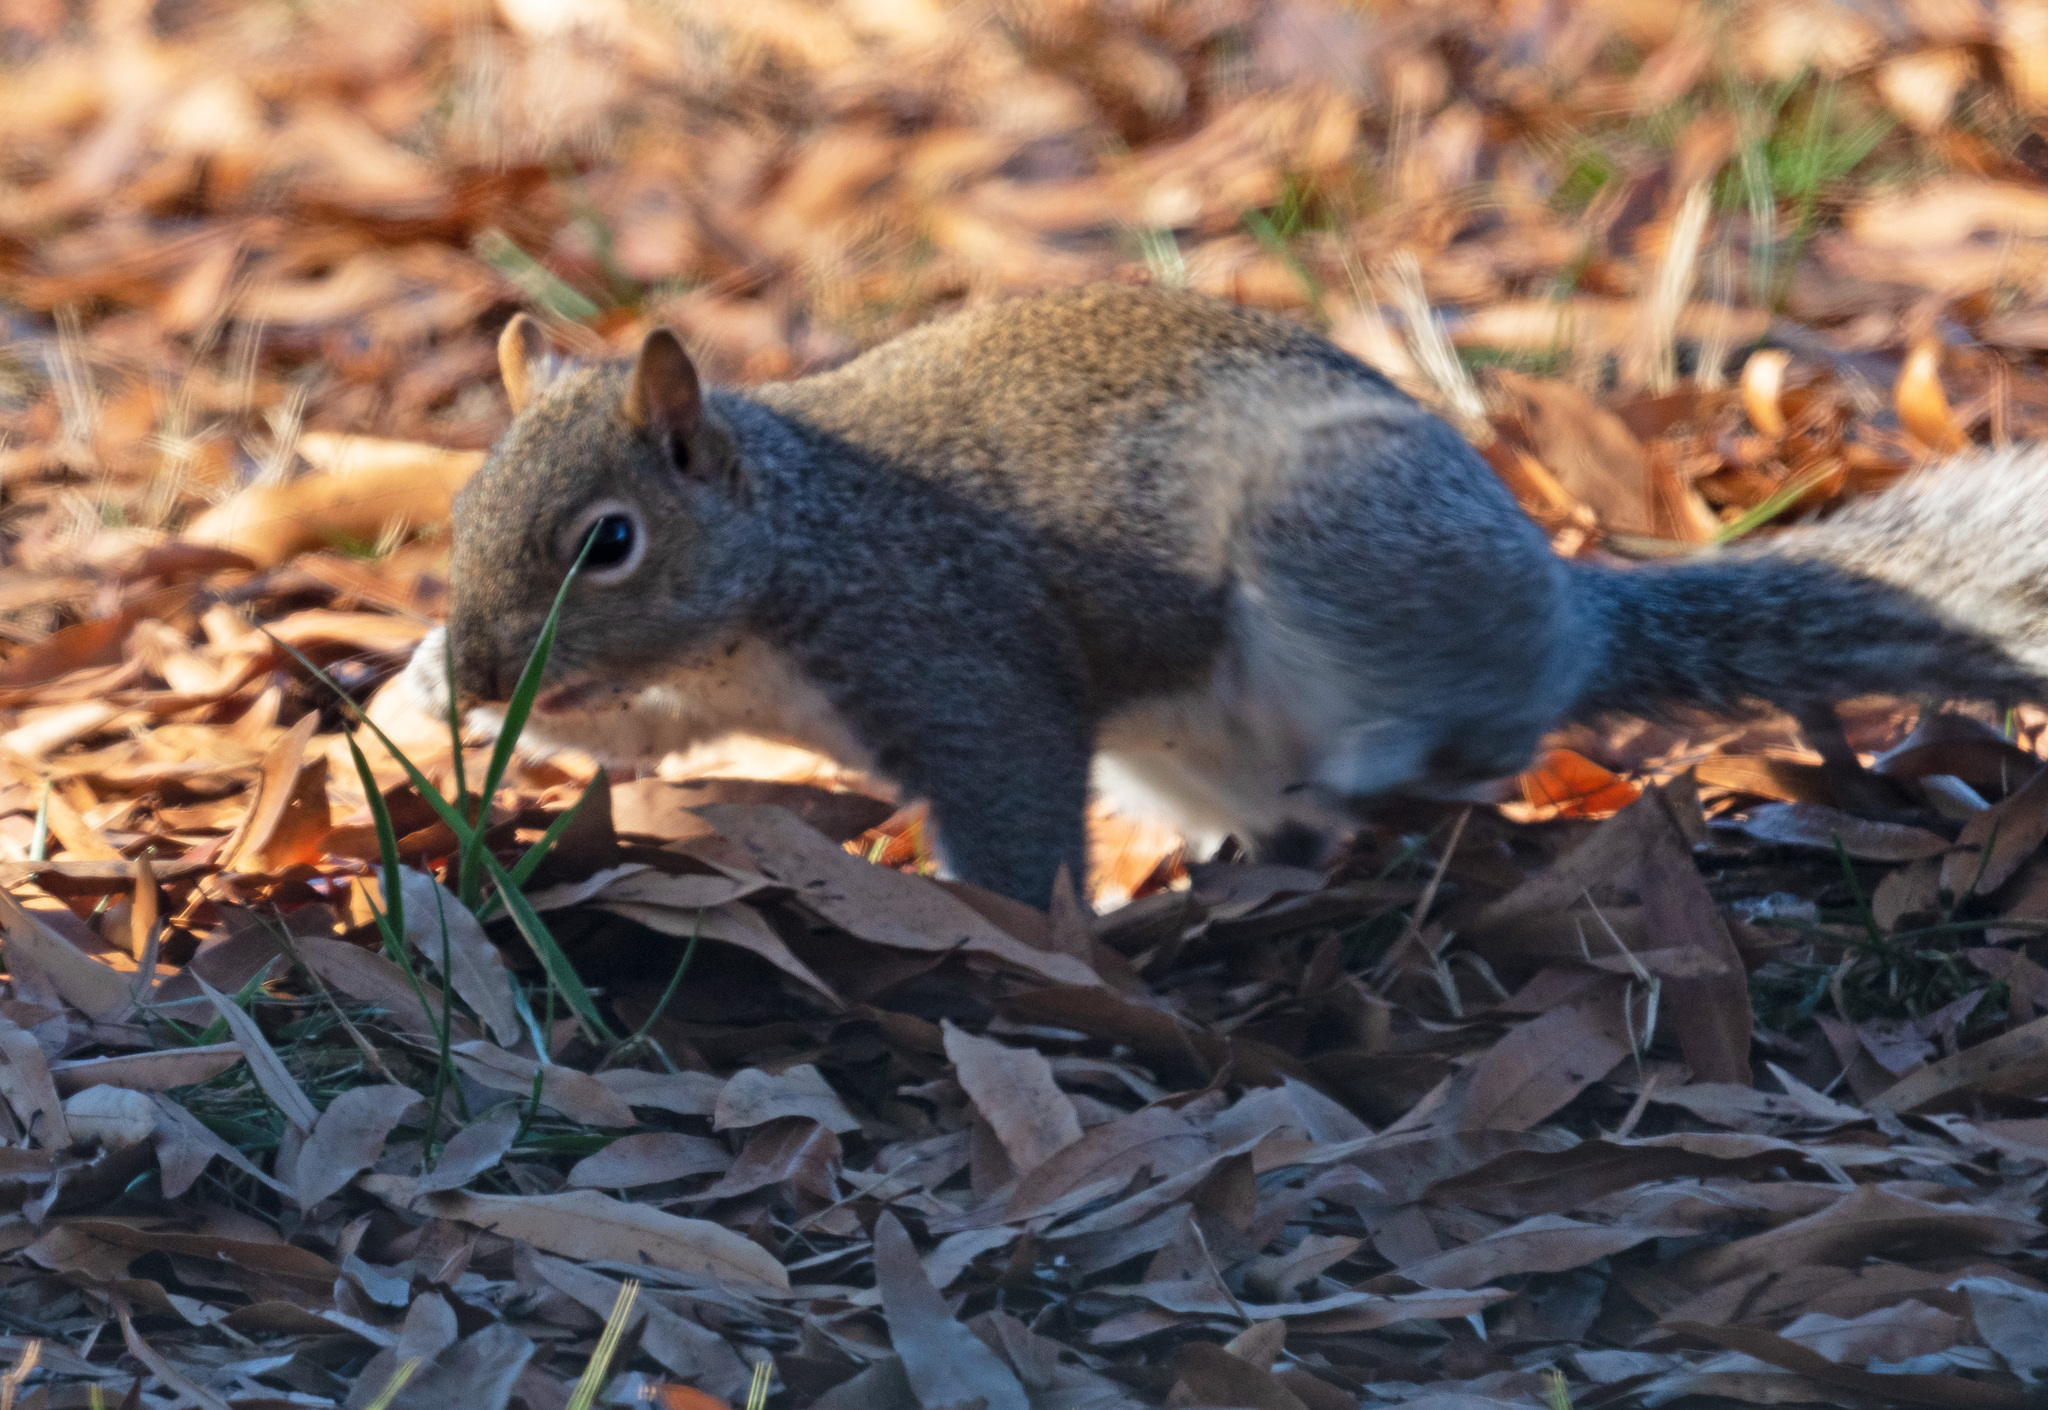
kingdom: Animalia
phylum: Chordata
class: Mammalia
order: Rodentia
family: Sciuridae
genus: Sciurus
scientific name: Sciurus carolinensis
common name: Eastern gray squirrel
